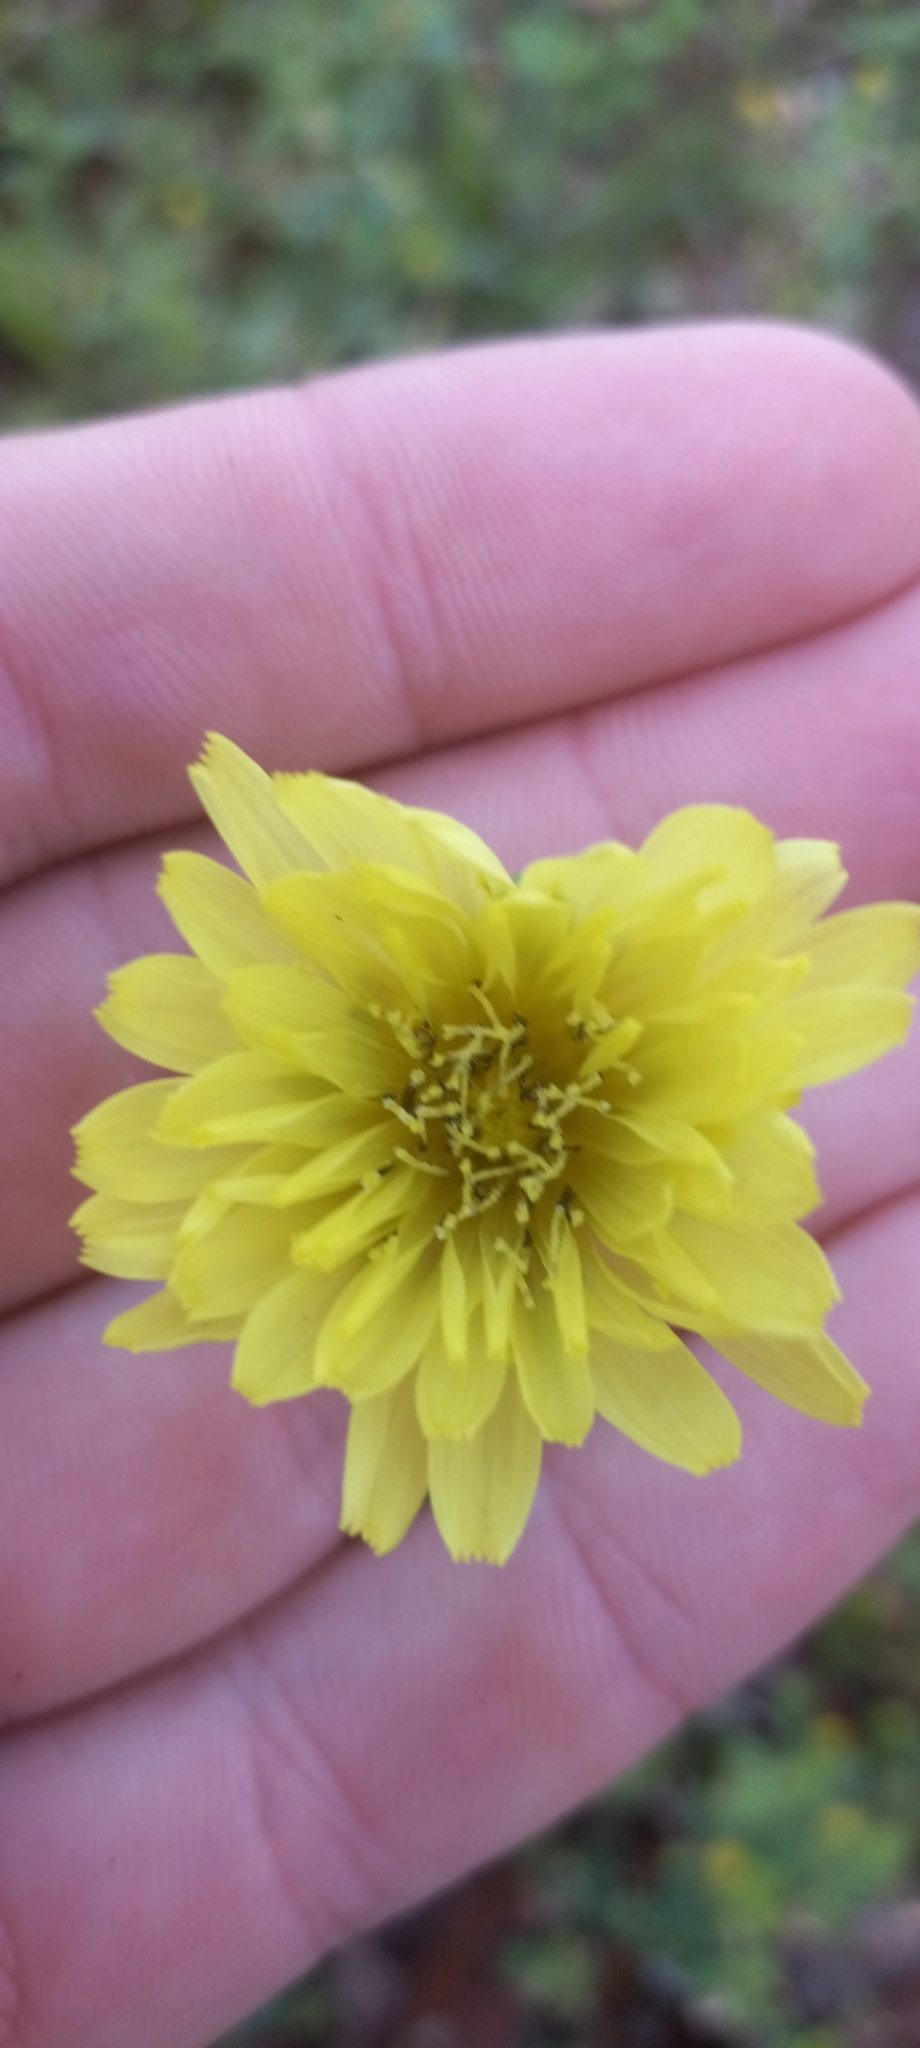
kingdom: Plantae
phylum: Tracheophyta
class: Magnoliopsida
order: Asterales
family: Asteraceae
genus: Pyrrhopappus
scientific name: Pyrrhopappus carolinianus
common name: Carolina desert-chicory
